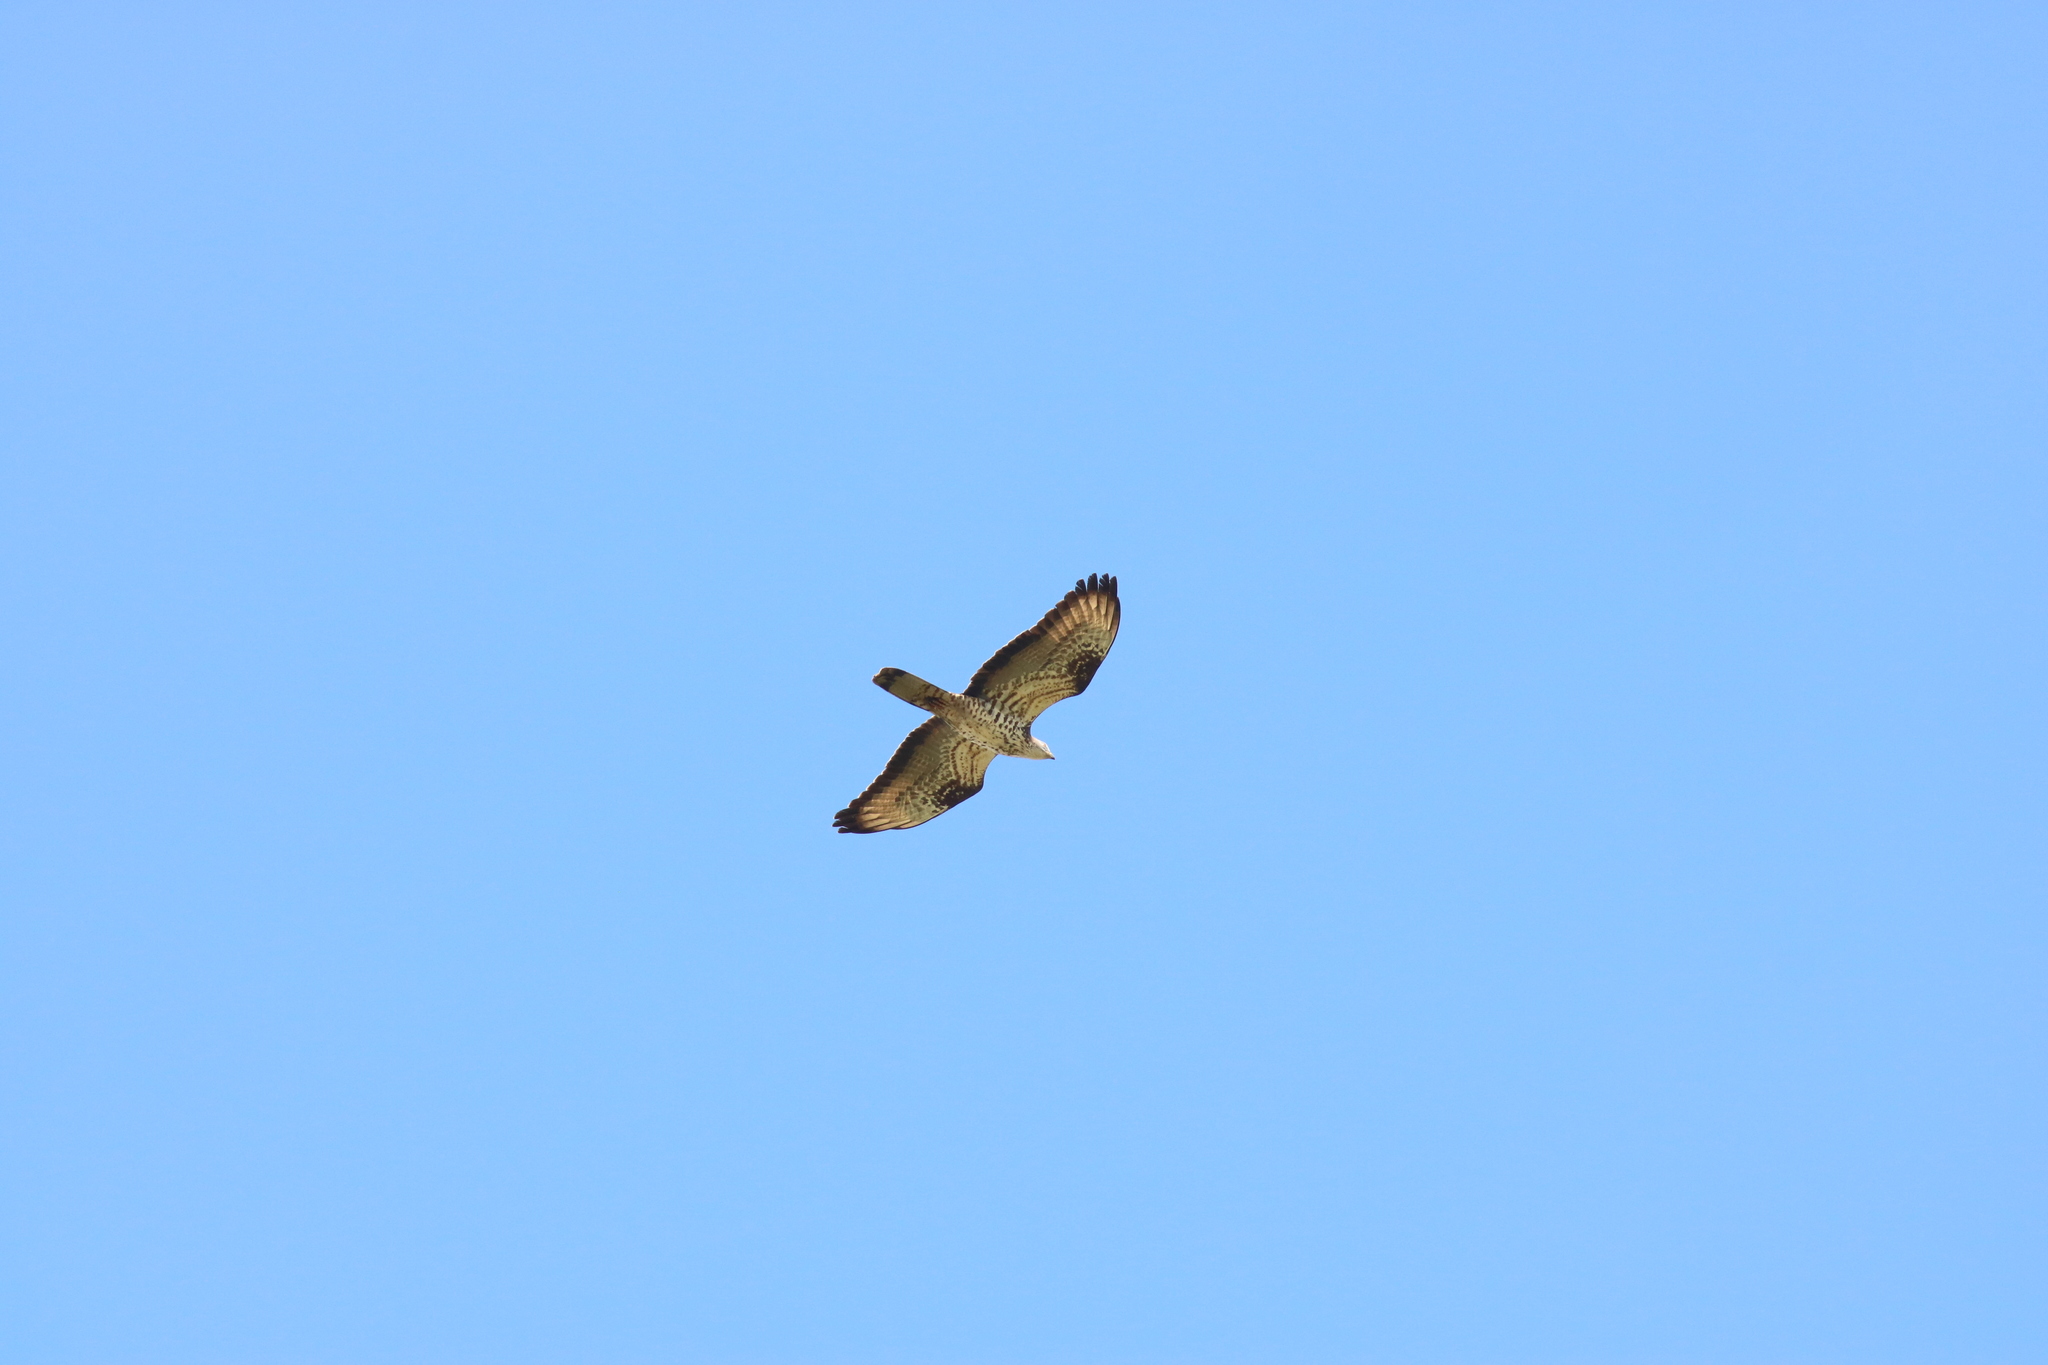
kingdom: Animalia
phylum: Chordata
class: Aves
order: Accipitriformes
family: Accipitridae
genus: Pernis
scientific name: Pernis apivorus
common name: European honey buzzard
